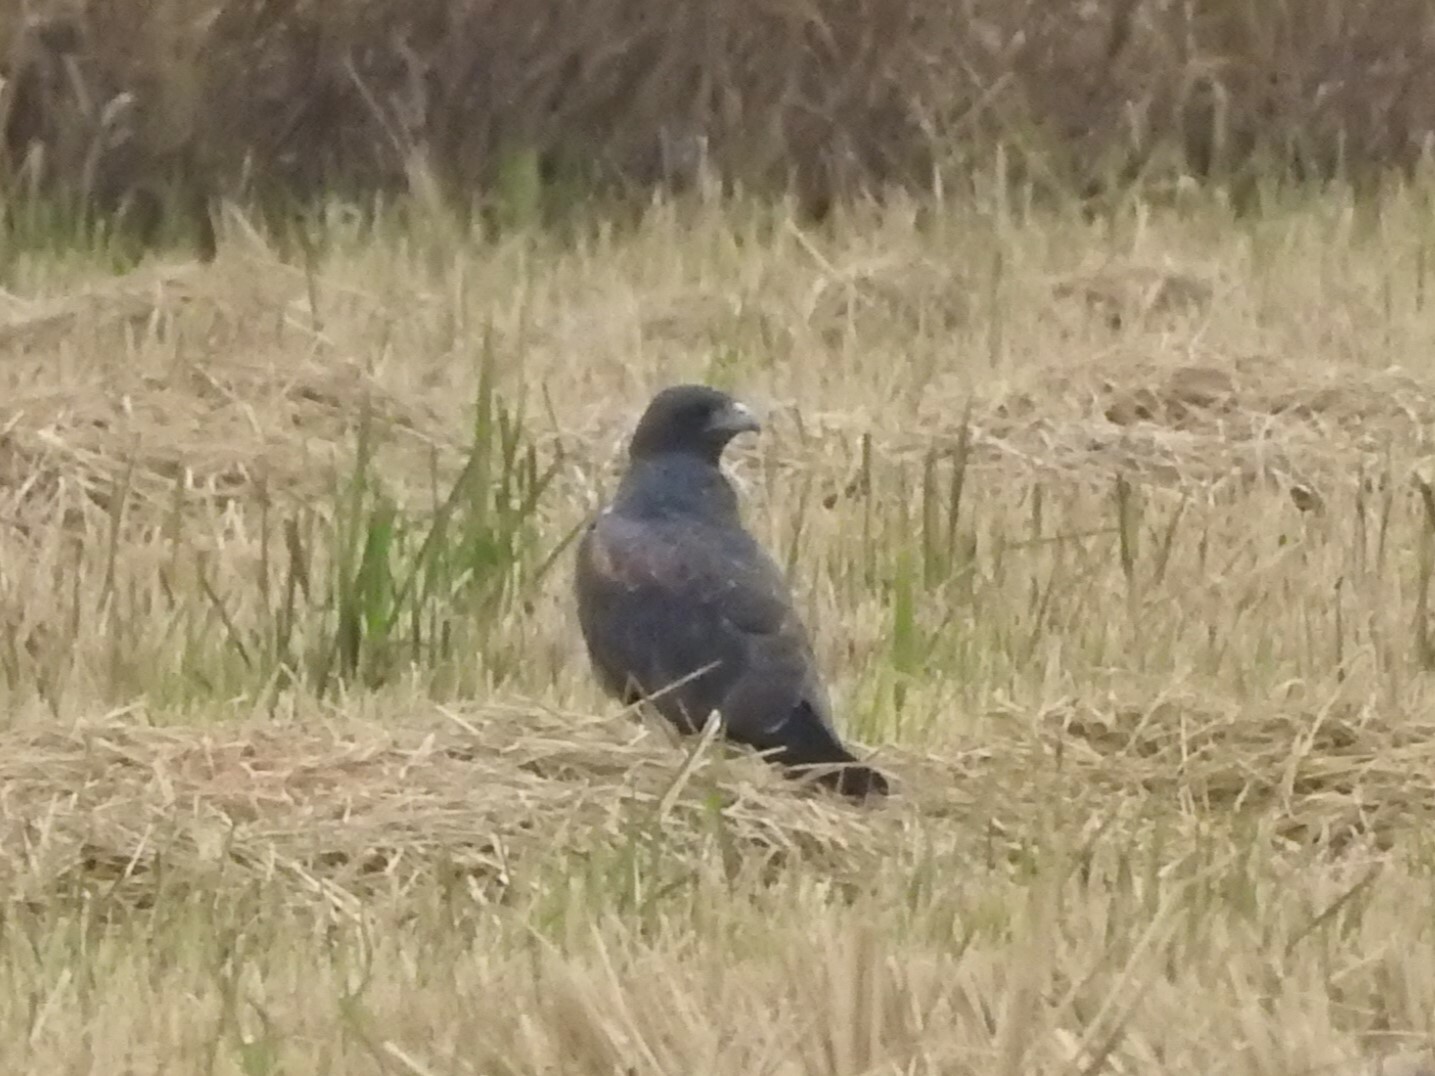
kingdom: Animalia
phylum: Chordata
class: Aves
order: Accipitriformes
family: Accipitridae
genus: Buteo
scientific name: Buteo albicaudatus
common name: White-tailed hawk
